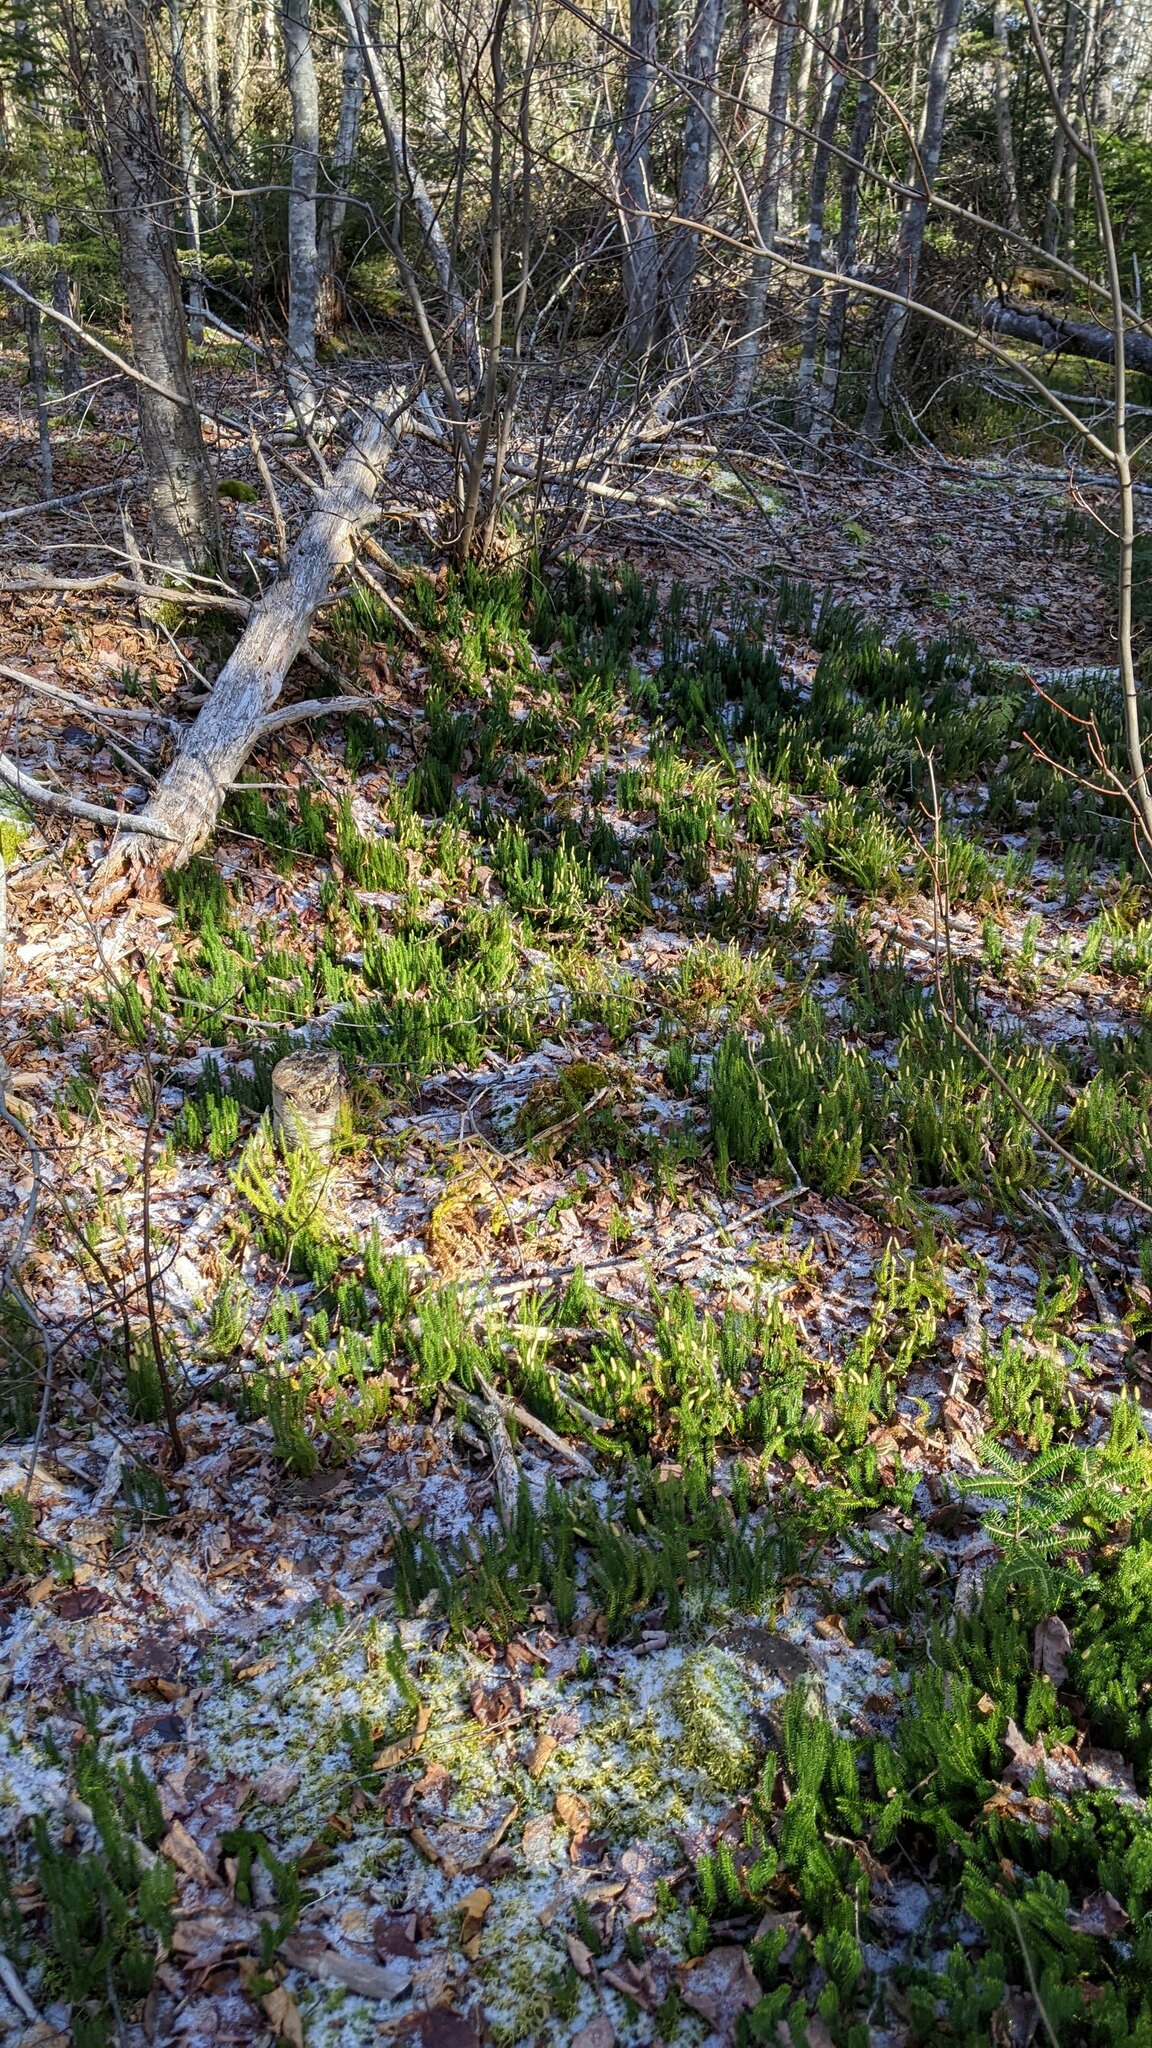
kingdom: Plantae
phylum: Tracheophyta
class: Lycopodiopsida
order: Lycopodiales
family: Lycopodiaceae
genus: Spinulum
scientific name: Spinulum annotinum
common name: Interrupted club-moss
